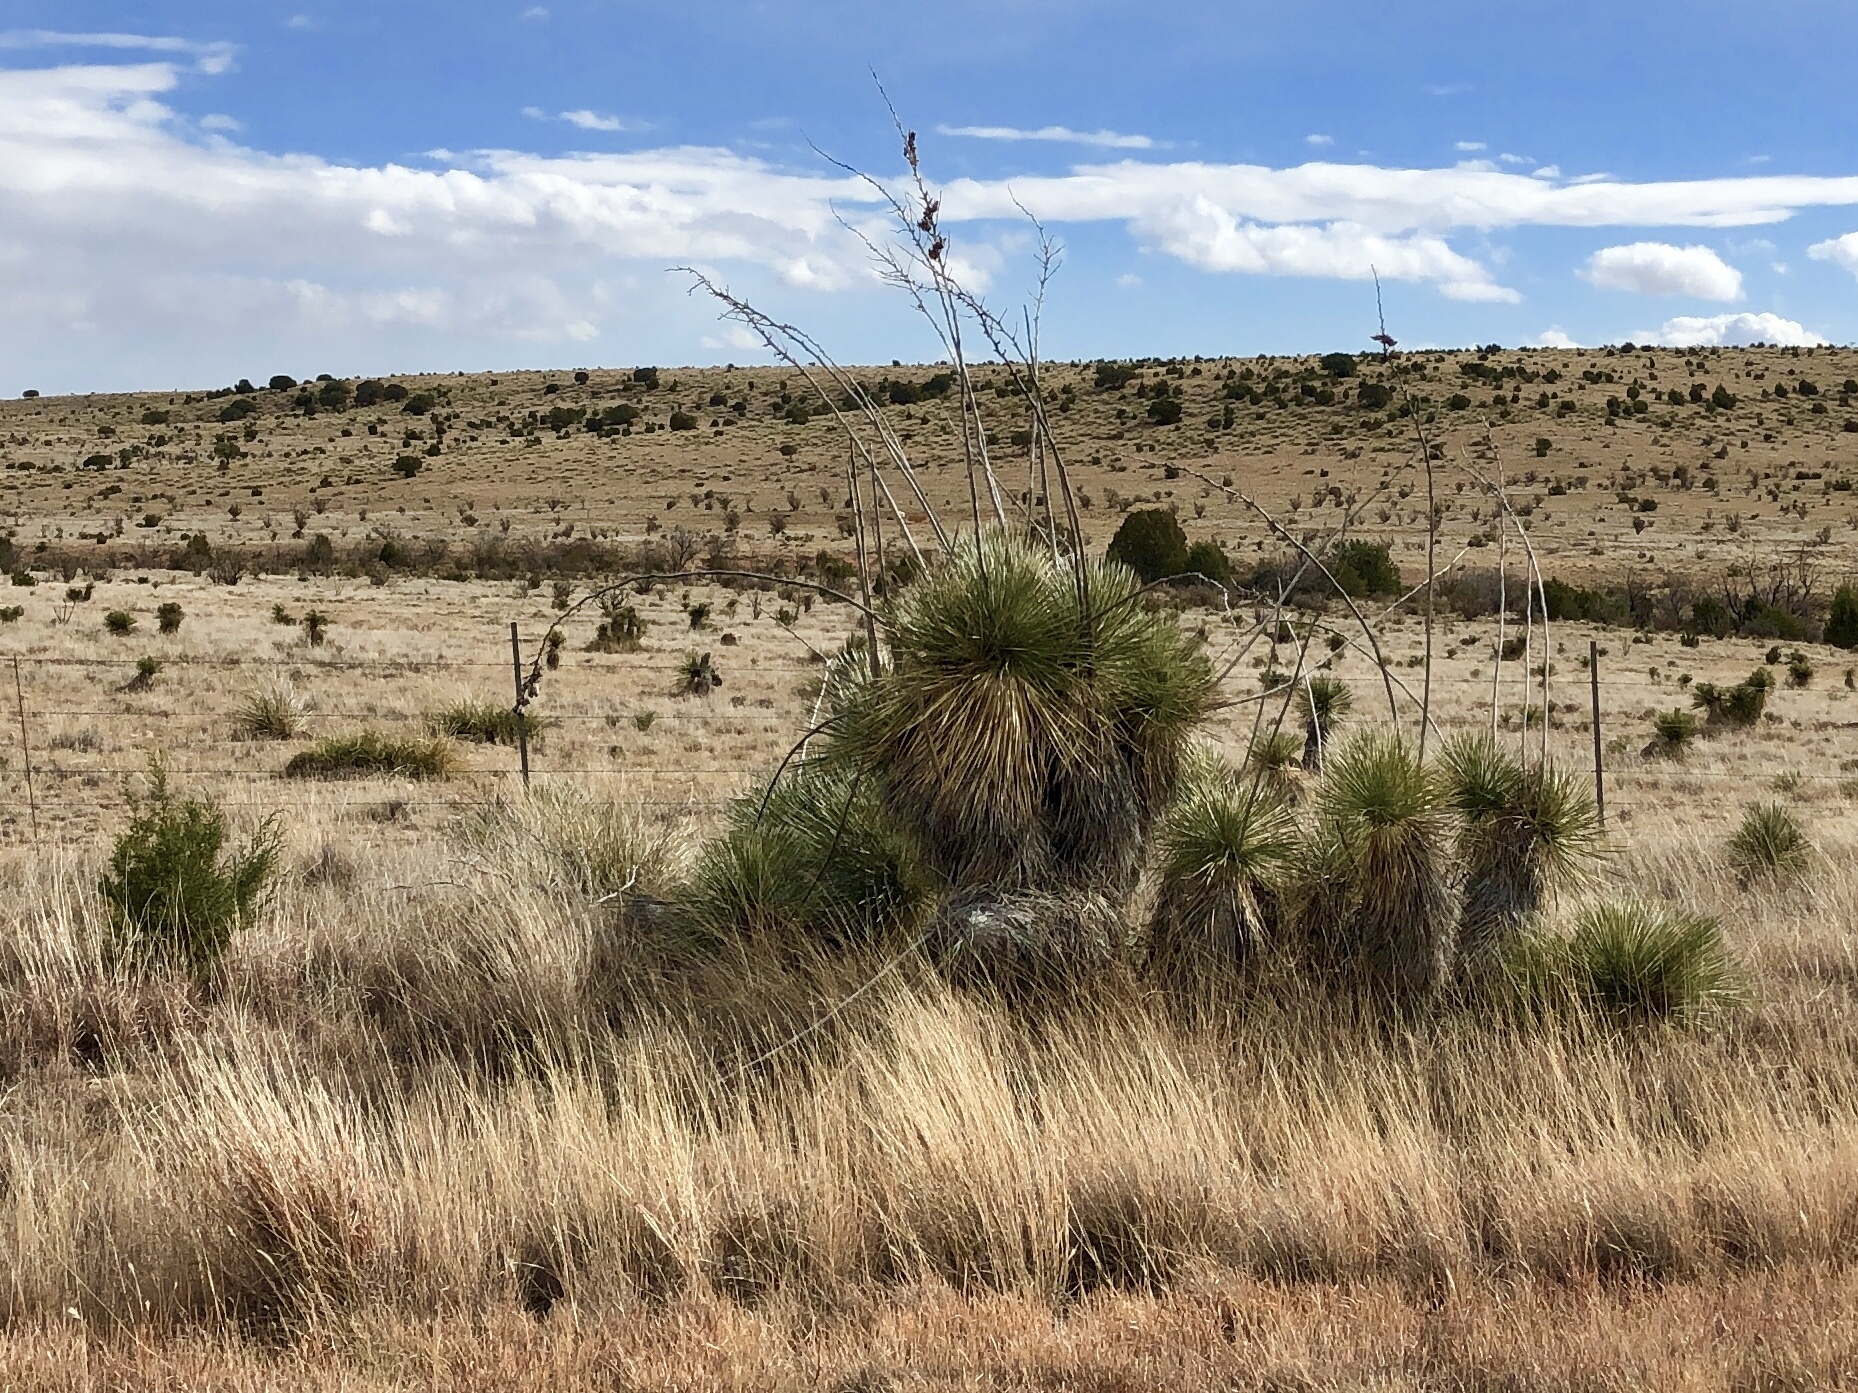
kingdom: Plantae
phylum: Tracheophyta
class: Liliopsida
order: Asparagales
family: Asparagaceae
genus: Yucca
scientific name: Yucca elata
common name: Palmella
